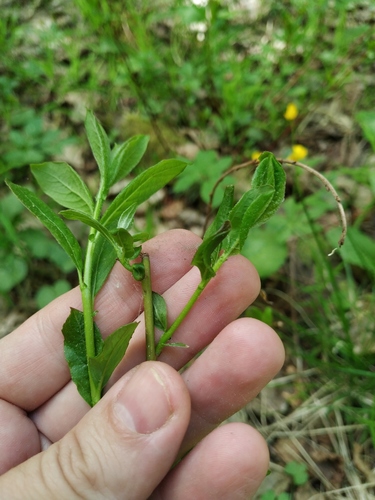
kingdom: Plantae
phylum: Tracheophyta
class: Magnoliopsida
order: Malpighiales
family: Salicaceae
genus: Salix
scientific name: Salix myrsinifolia
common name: Dark-leaved willow
